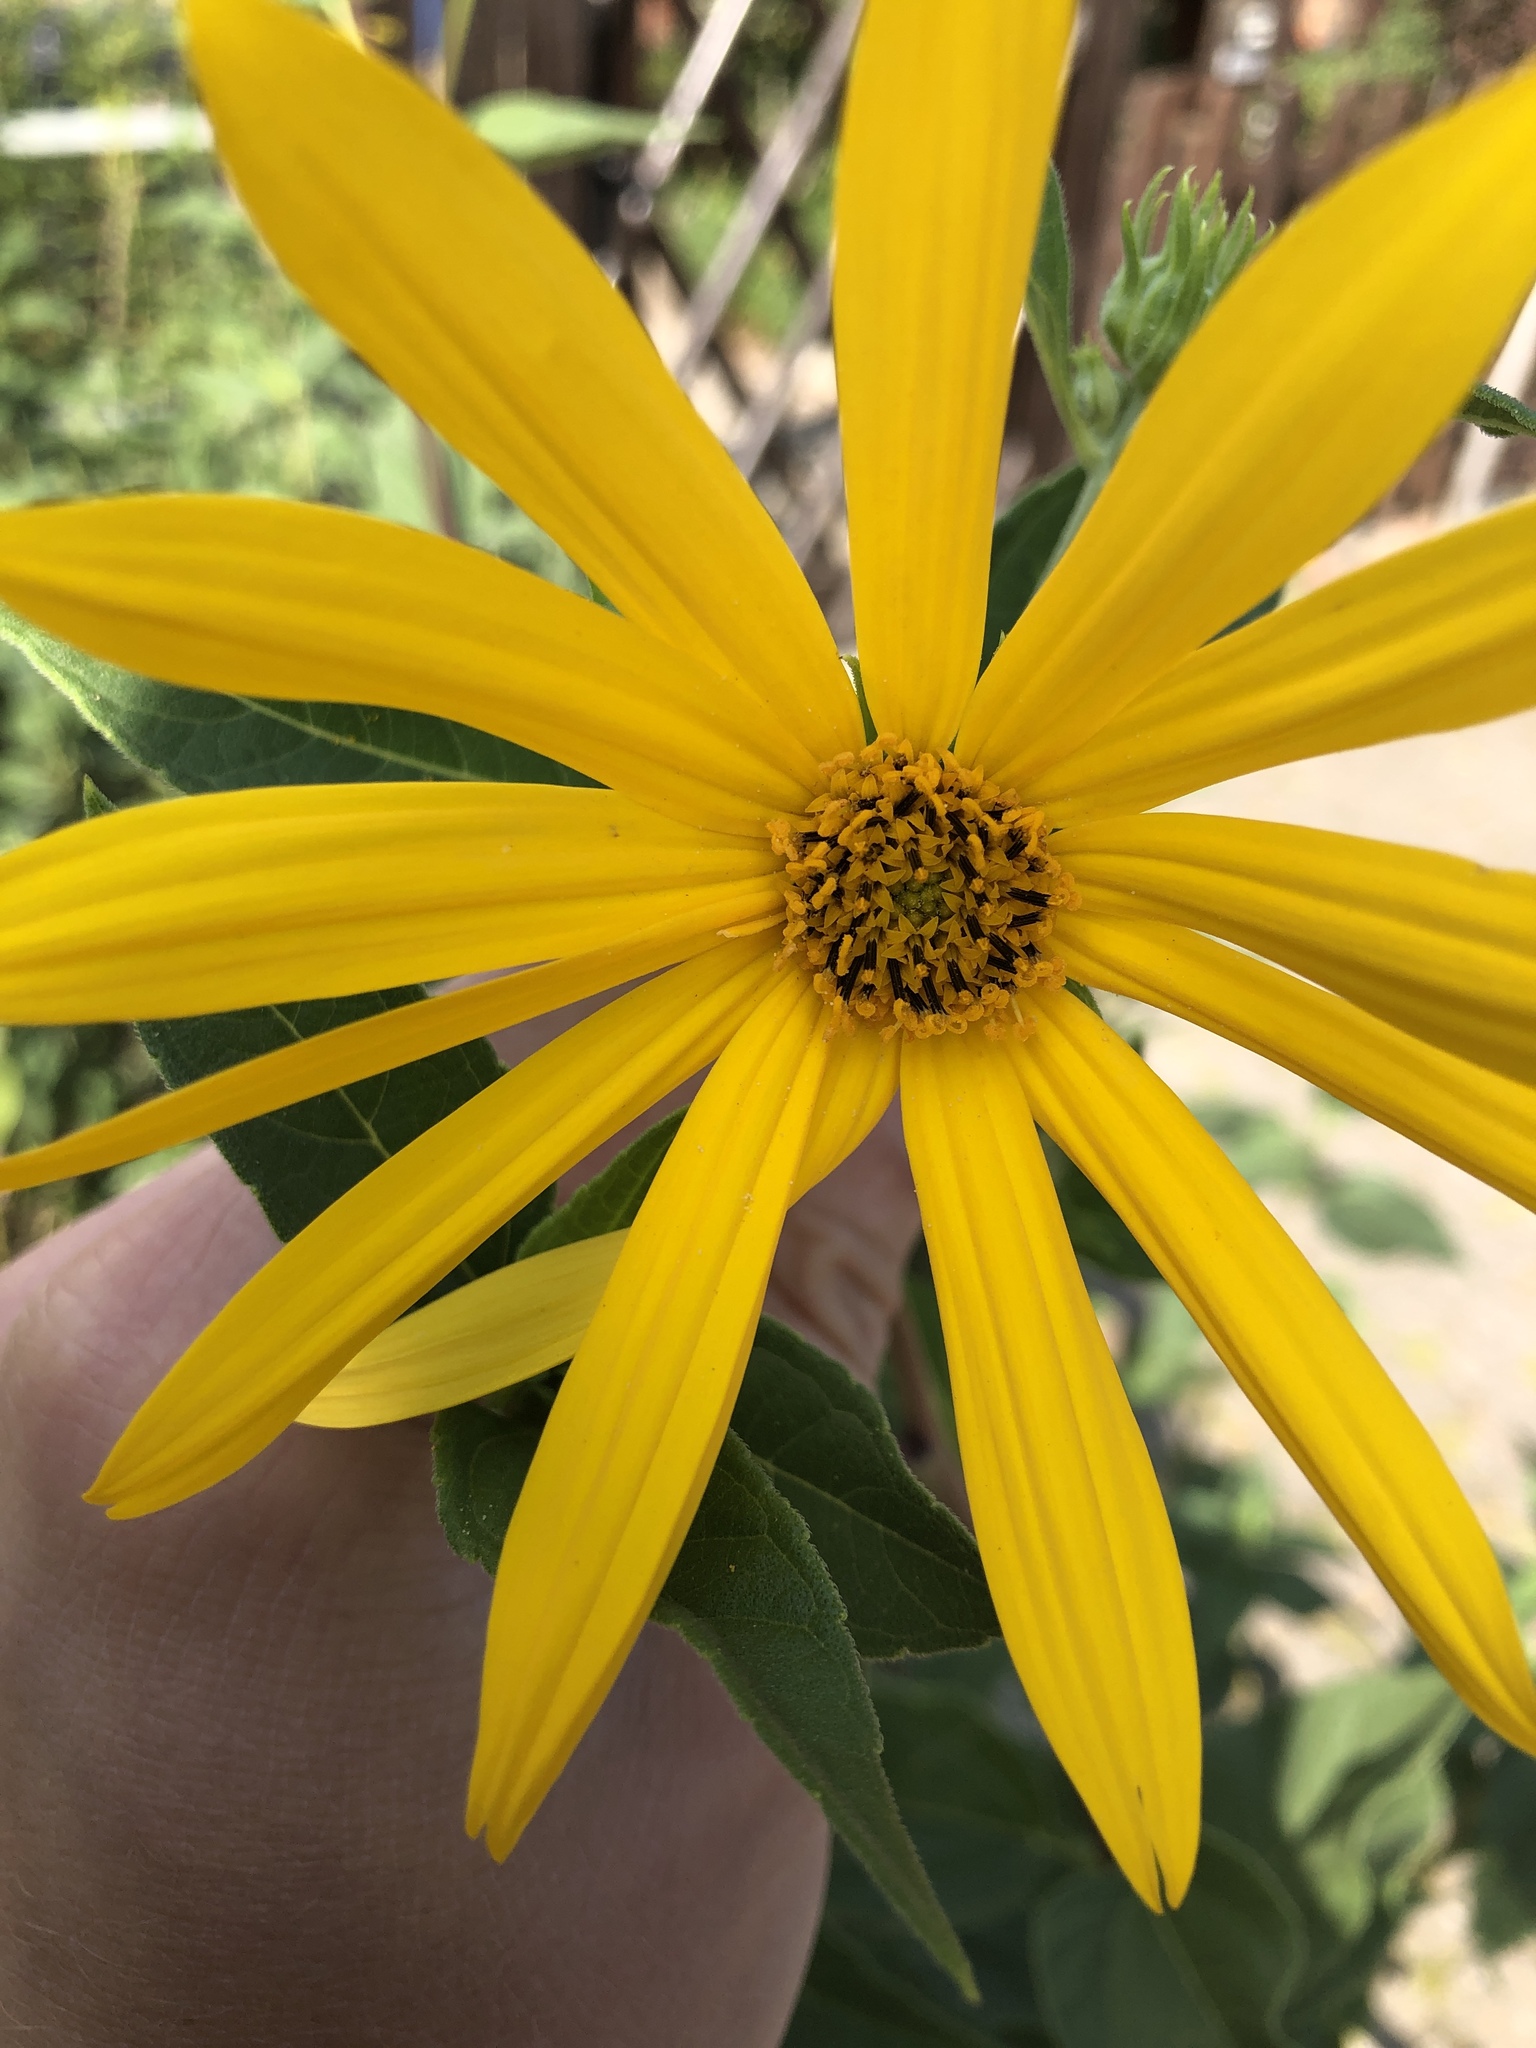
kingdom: Plantae
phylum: Tracheophyta
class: Magnoliopsida
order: Asterales
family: Asteraceae
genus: Helianthus
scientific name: Helianthus tuberosus
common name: Jerusalem artichoke
